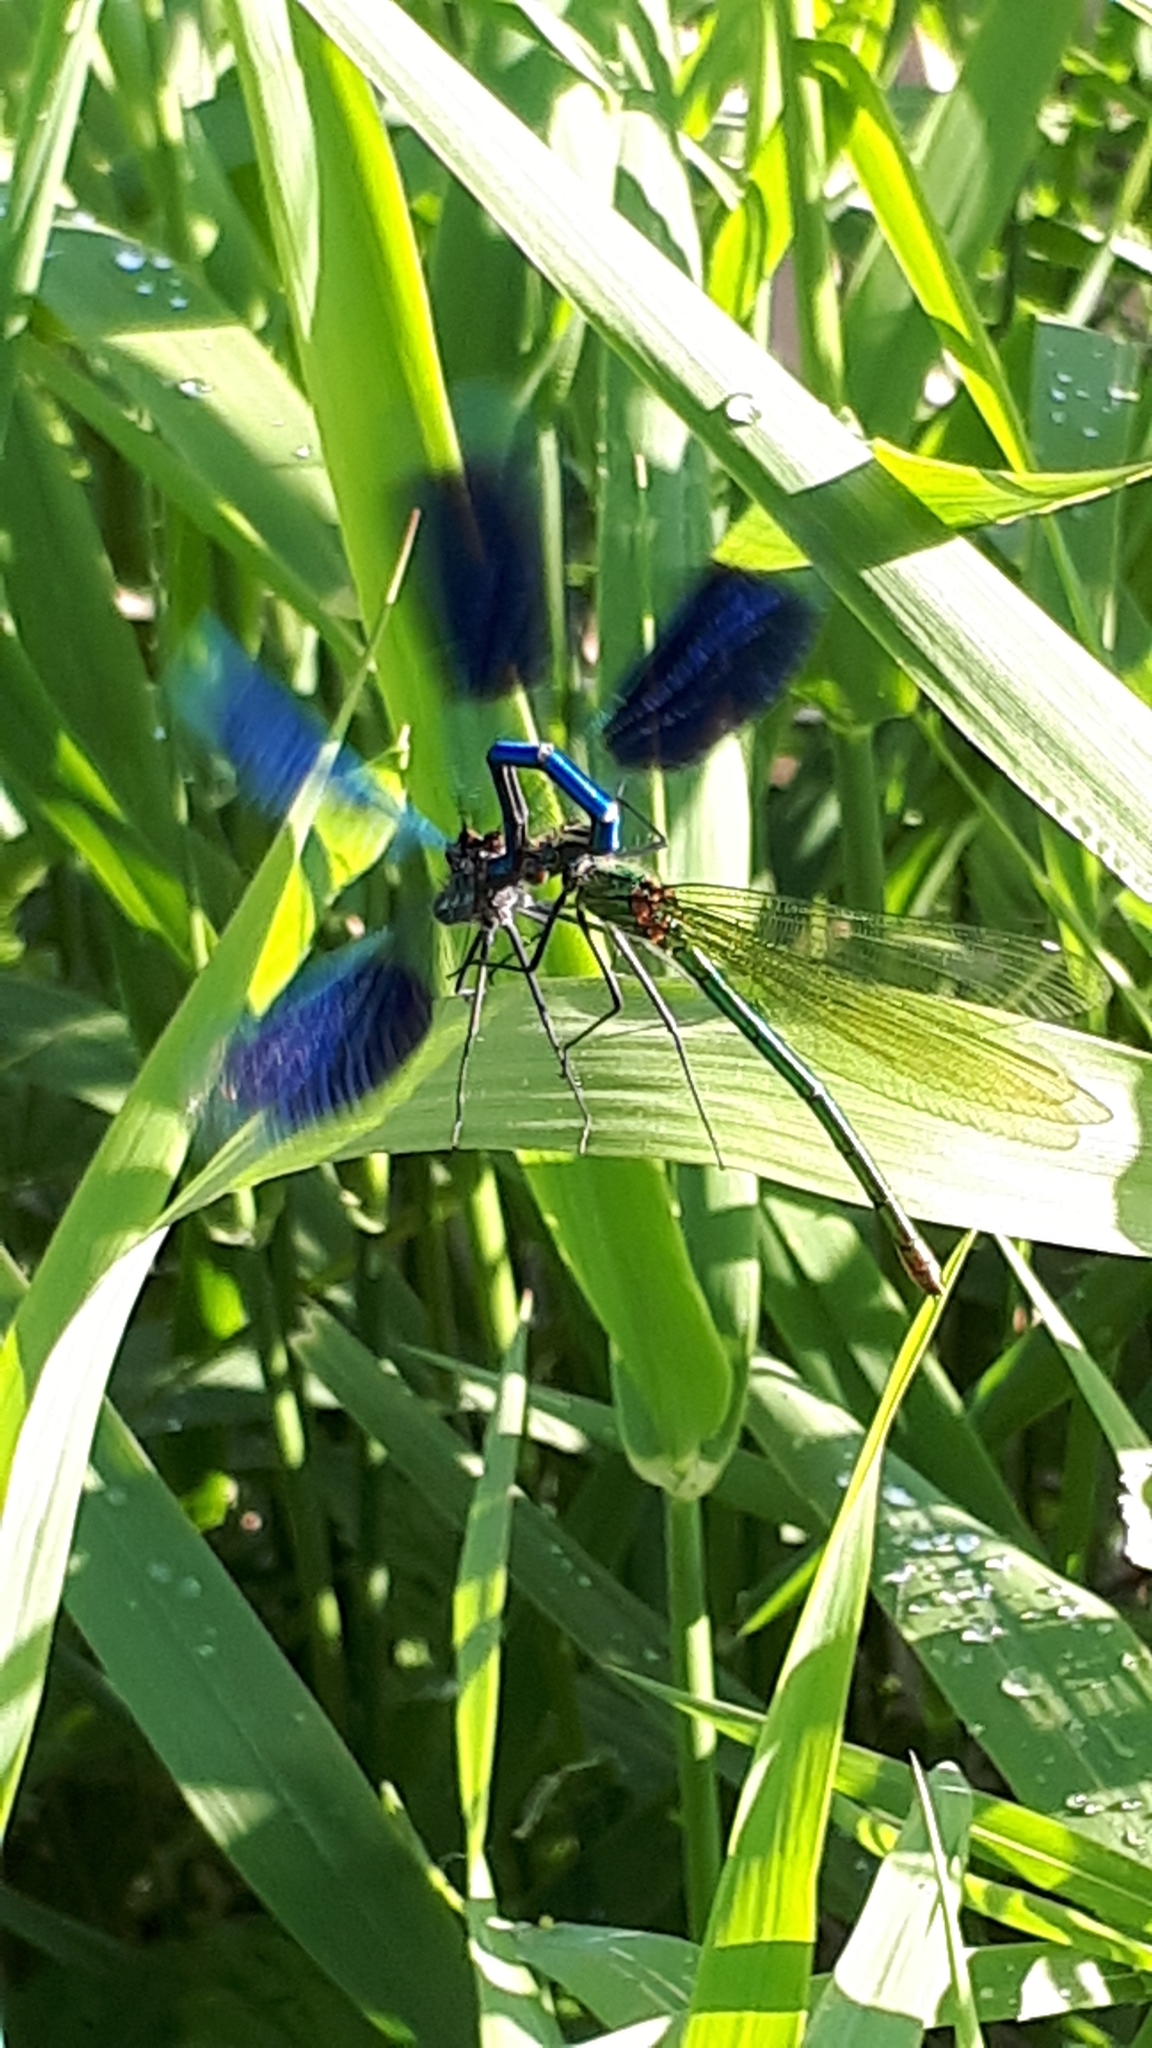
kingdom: Animalia
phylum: Arthropoda
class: Insecta
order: Odonata
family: Calopterygidae
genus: Calopteryx
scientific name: Calopteryx splendens
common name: Banded demoiselle
